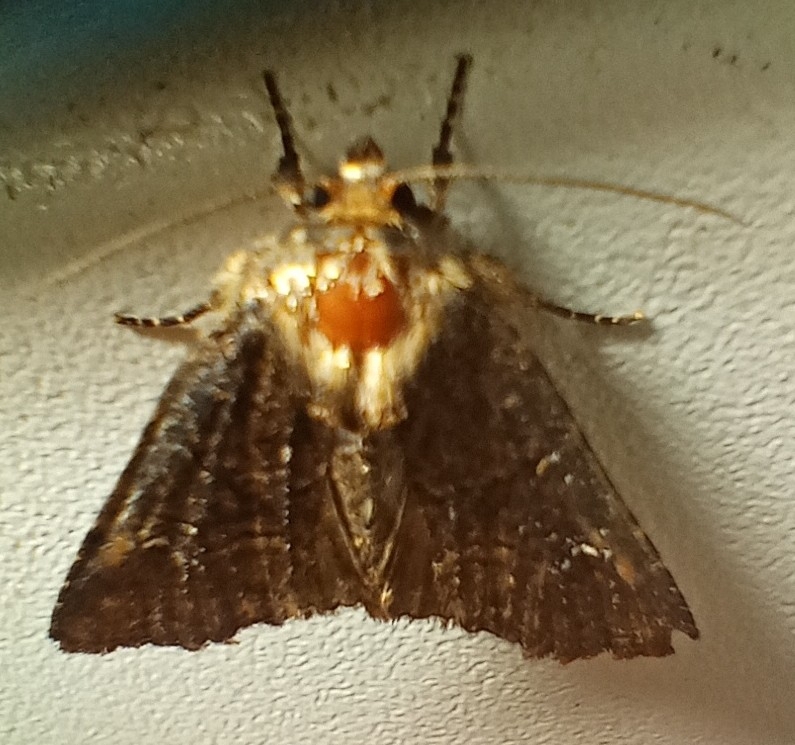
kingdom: Animalia
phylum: Arthropoda
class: Insecta
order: Lepidoptera
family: Noctuidae
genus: Mesapamea
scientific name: Mesapamea
